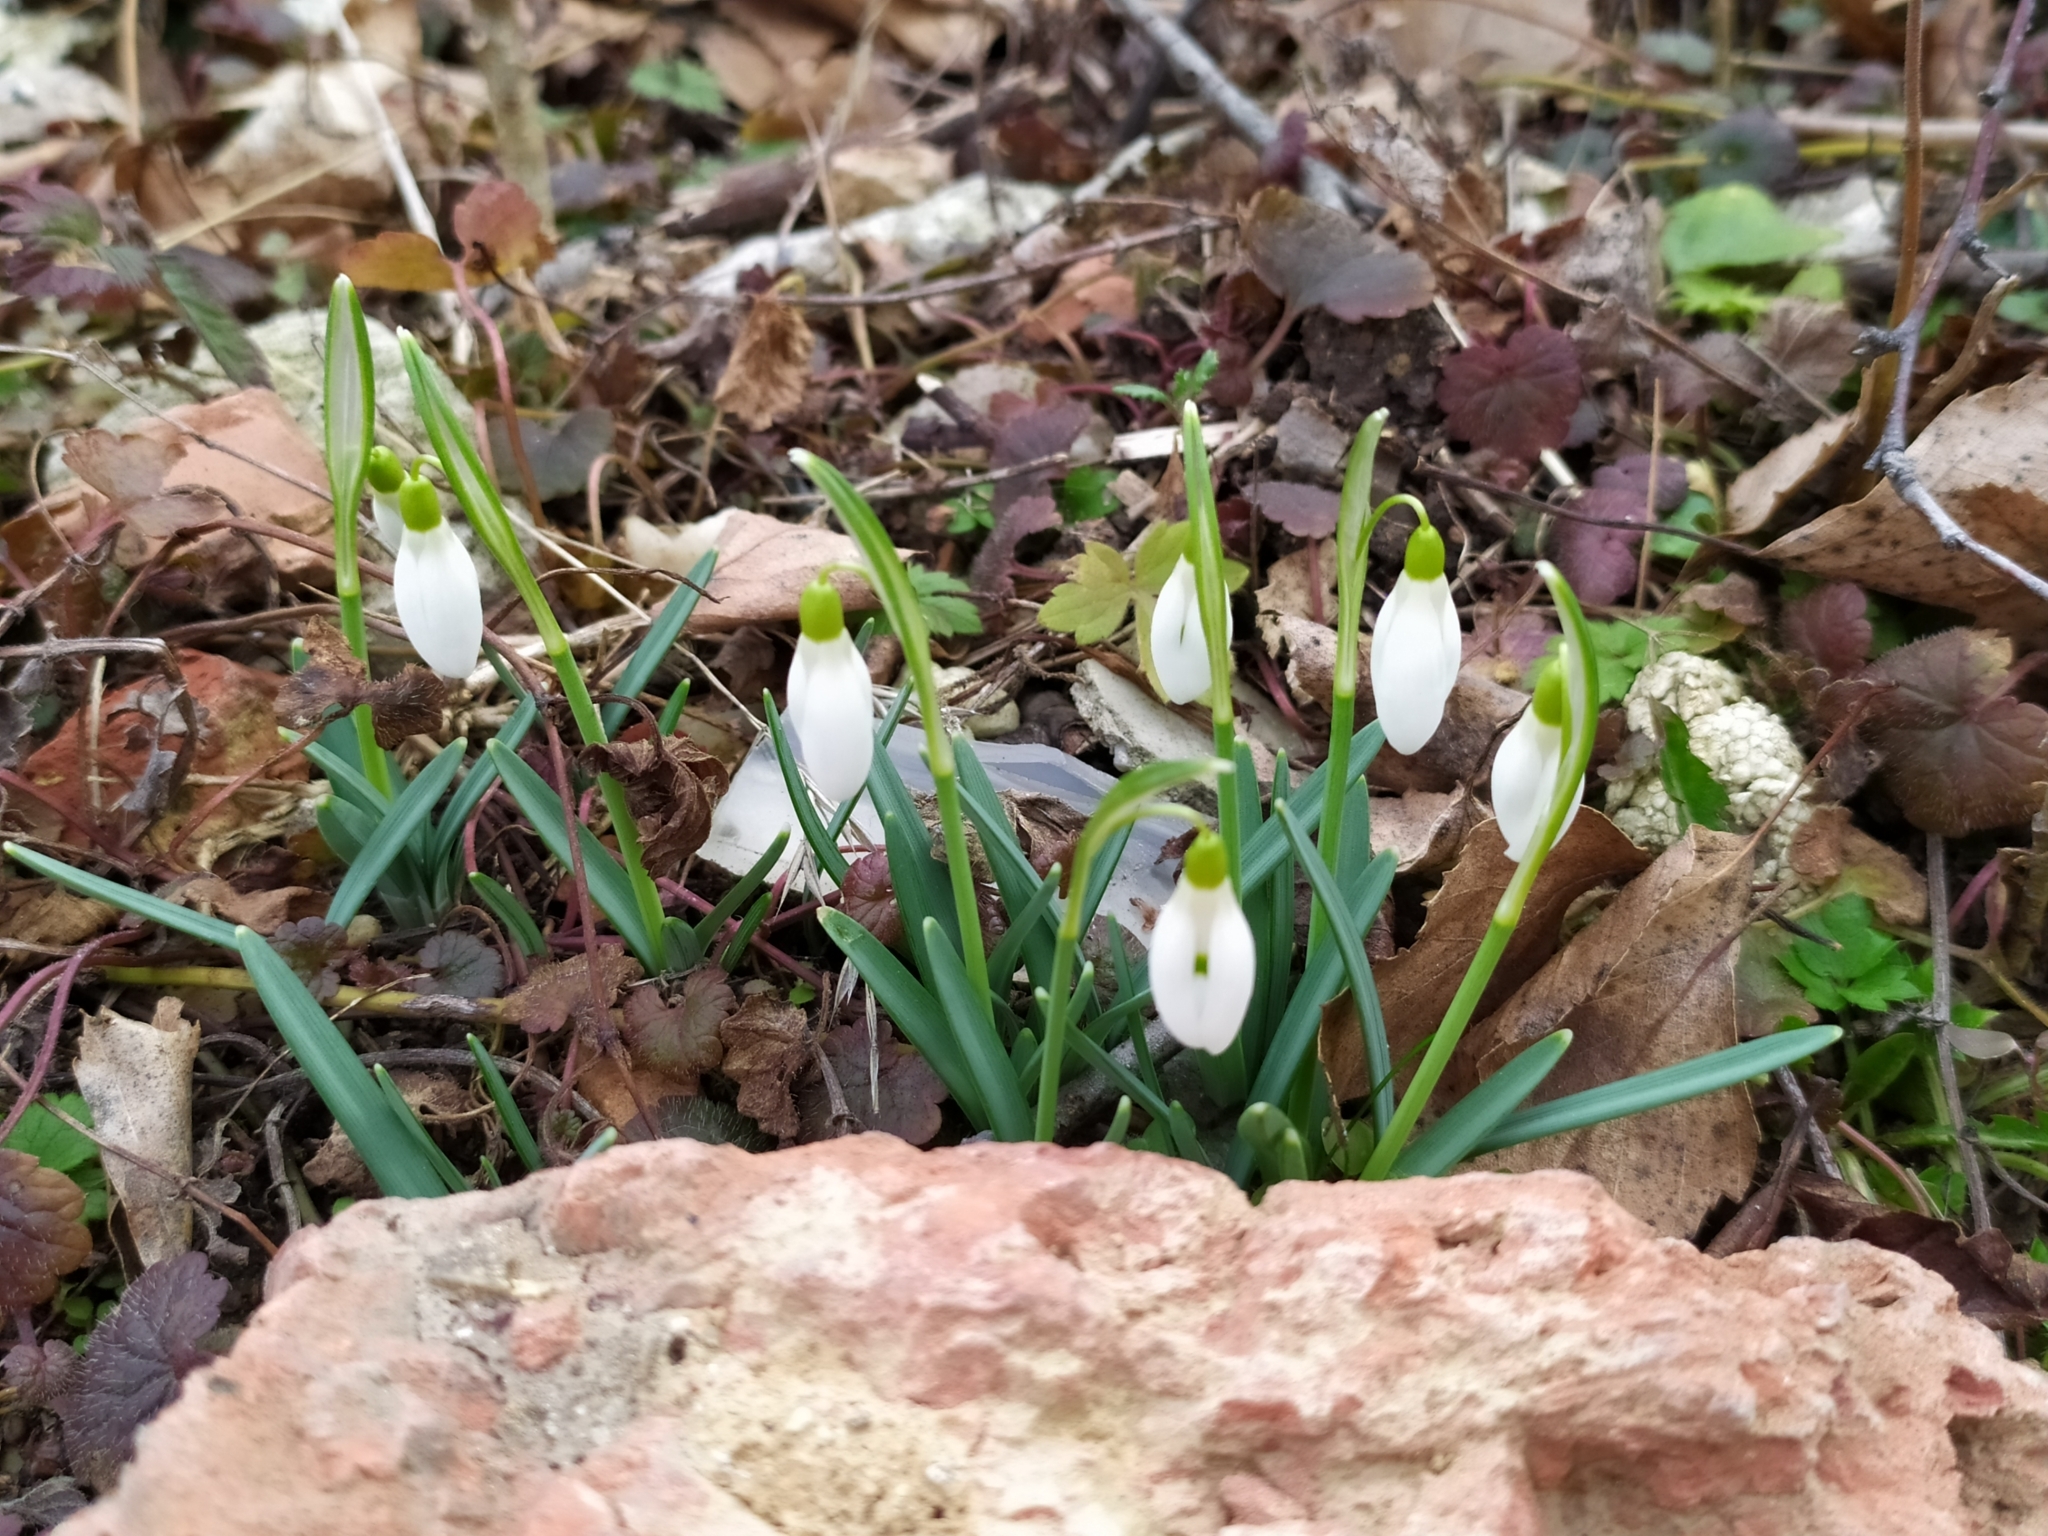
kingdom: Plantae
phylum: Tracheophyta
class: Liliopsida
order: Asparagales
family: Amaryllidaceae
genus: Galanthus
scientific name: Galanthus nivalis
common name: Snowdrop
